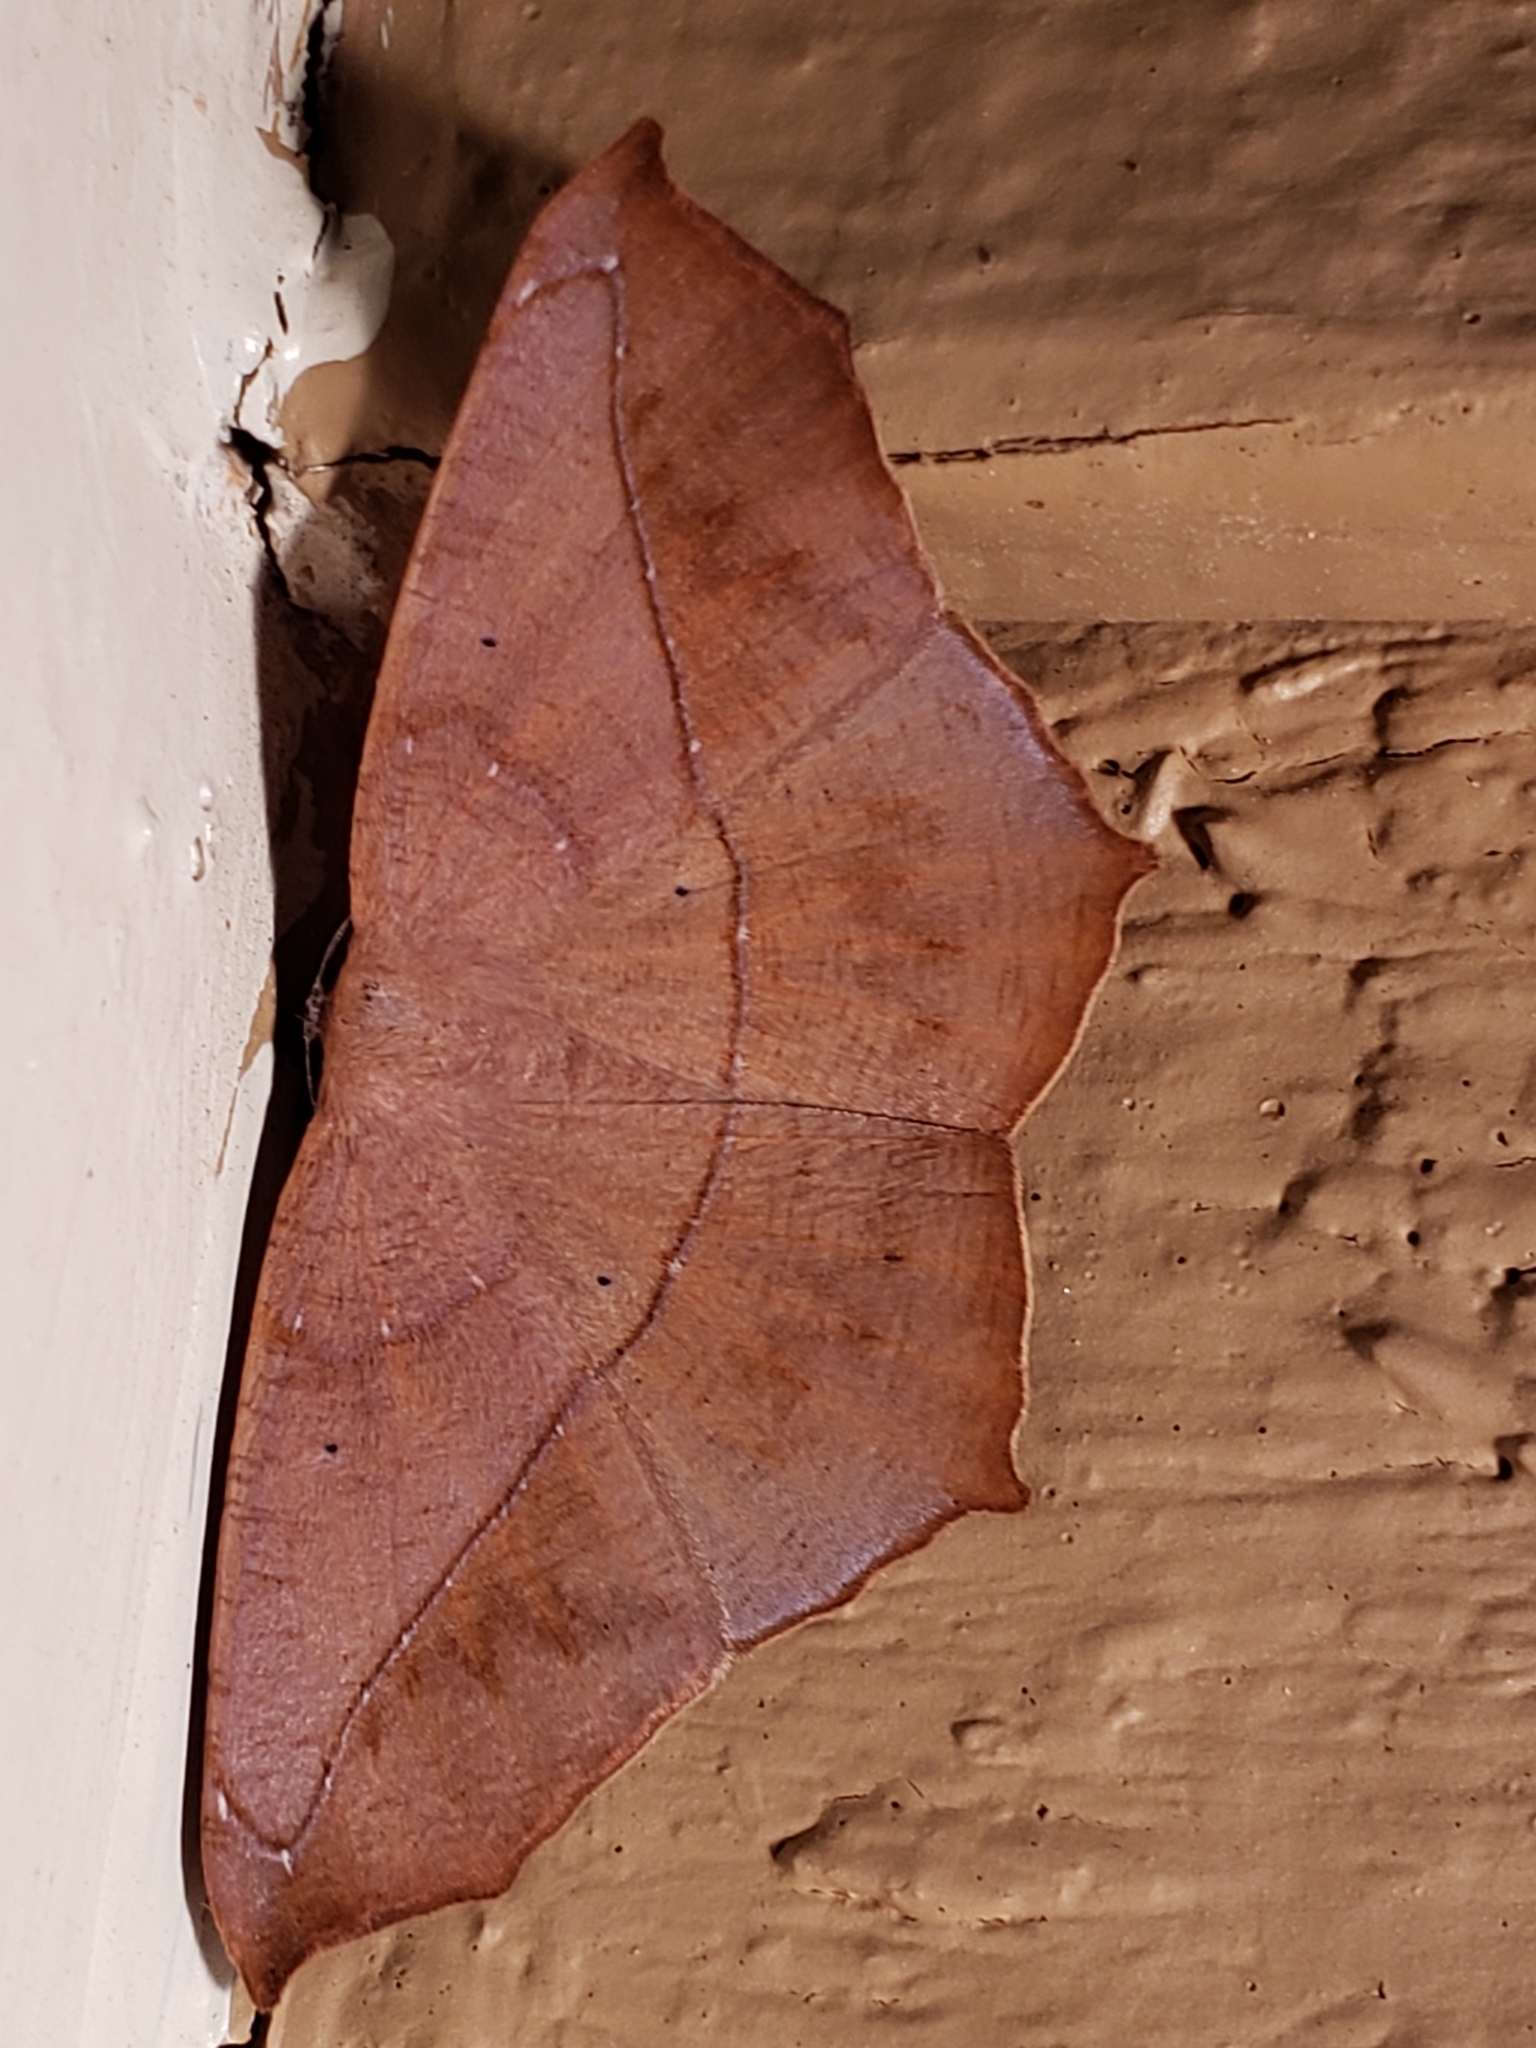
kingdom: Animalia
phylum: Arthropoda
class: Insecta
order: Lepidoptera
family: Geometridae
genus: Prochoerodes
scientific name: Prochoerodes lineola
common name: Large maple spanworm
